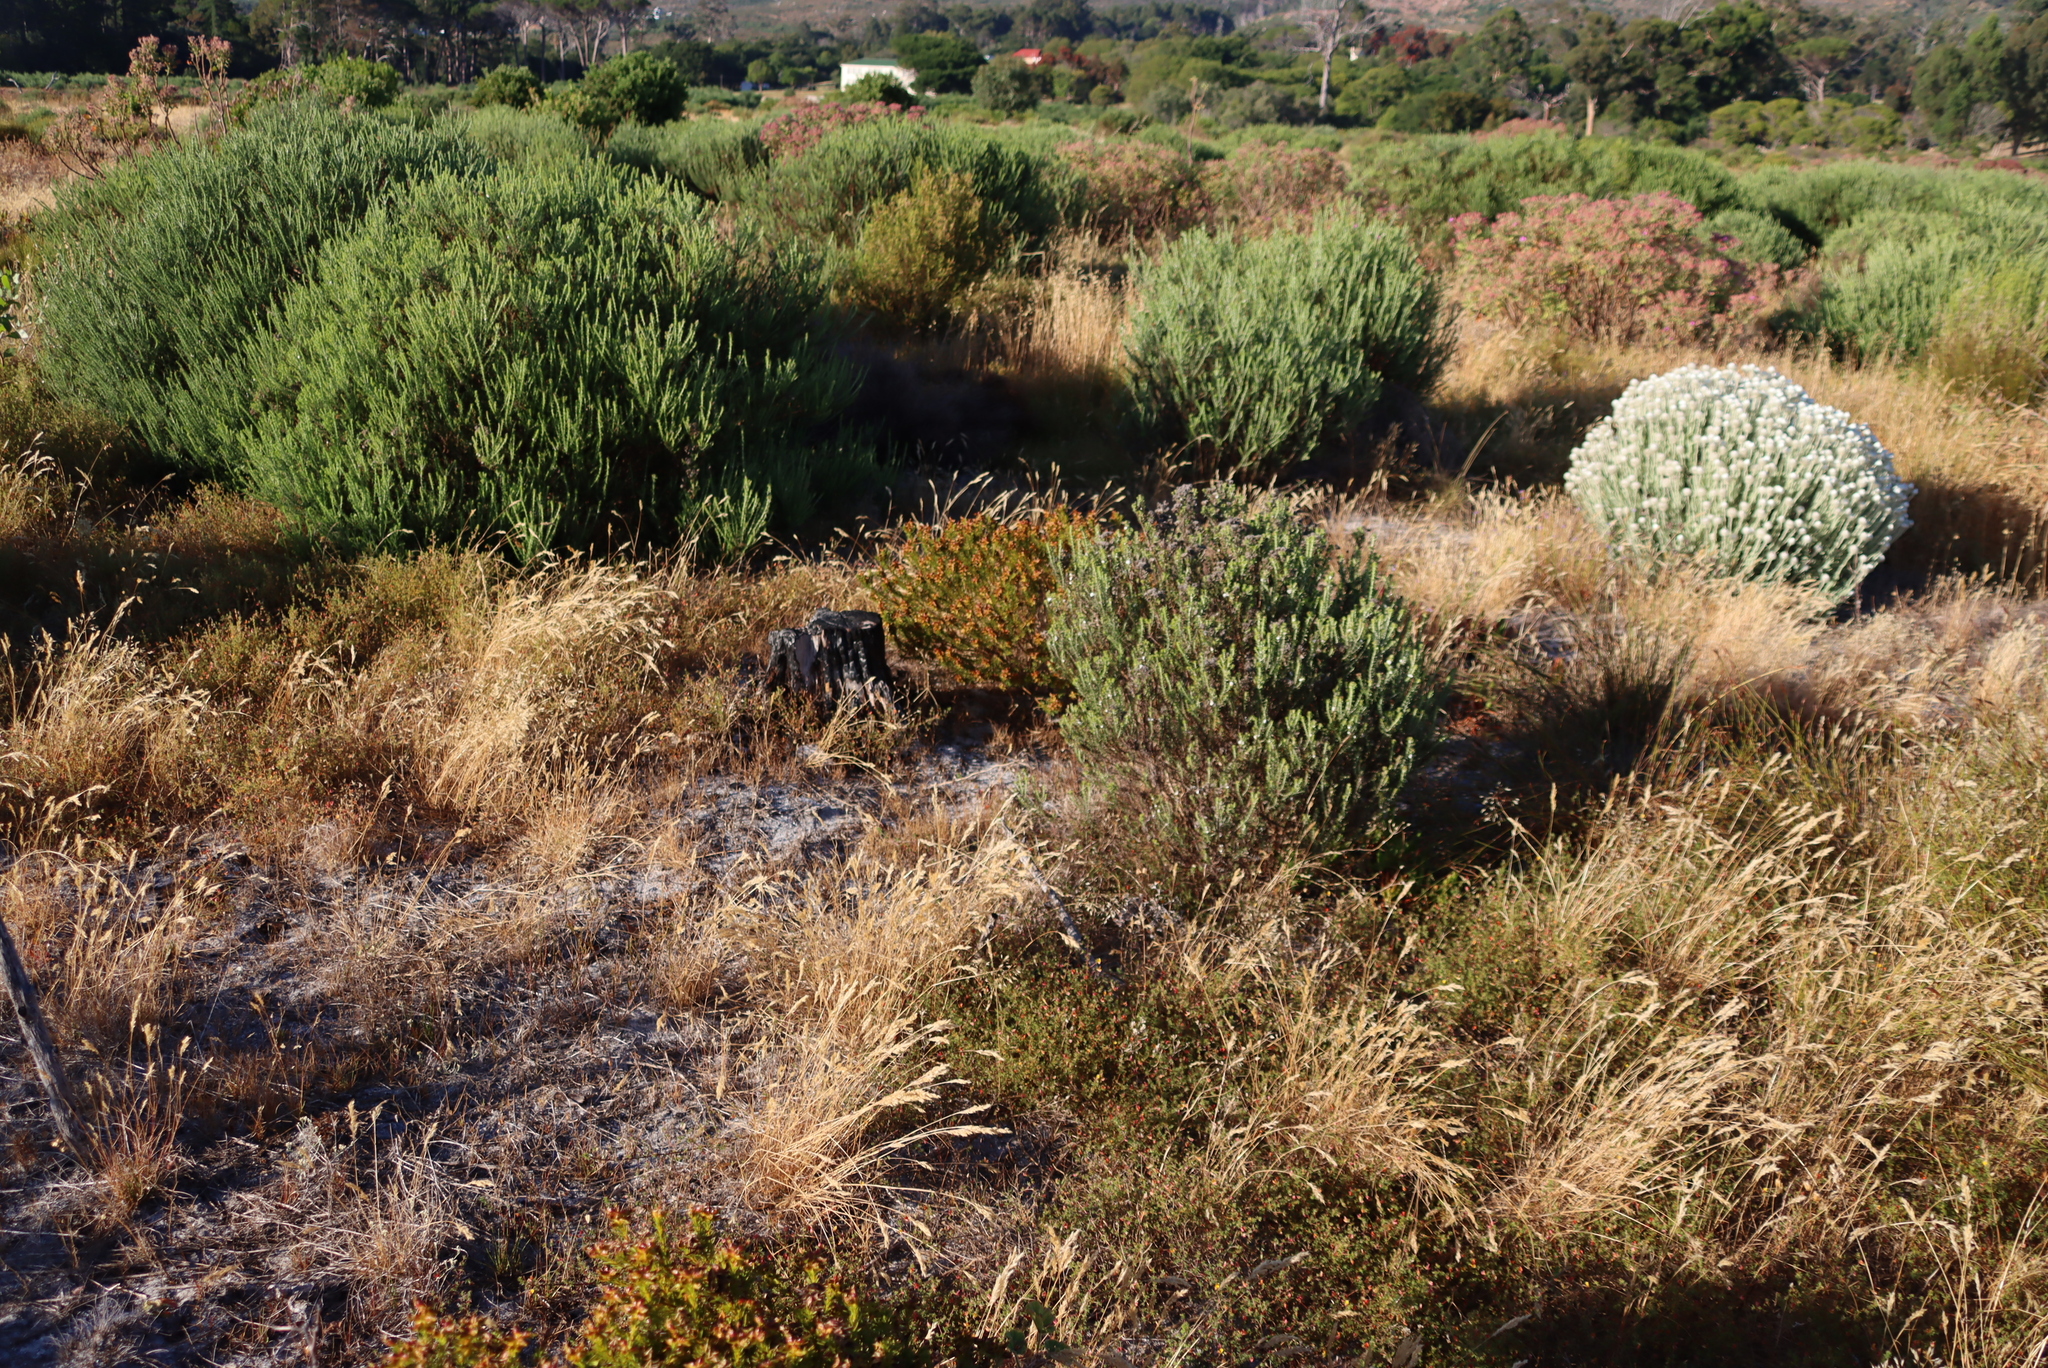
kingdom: Plantae
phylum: Tracheophyta
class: Magnoliopsida
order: Asterales
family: Asteraceae
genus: Metalasia
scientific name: Metalasia densa
